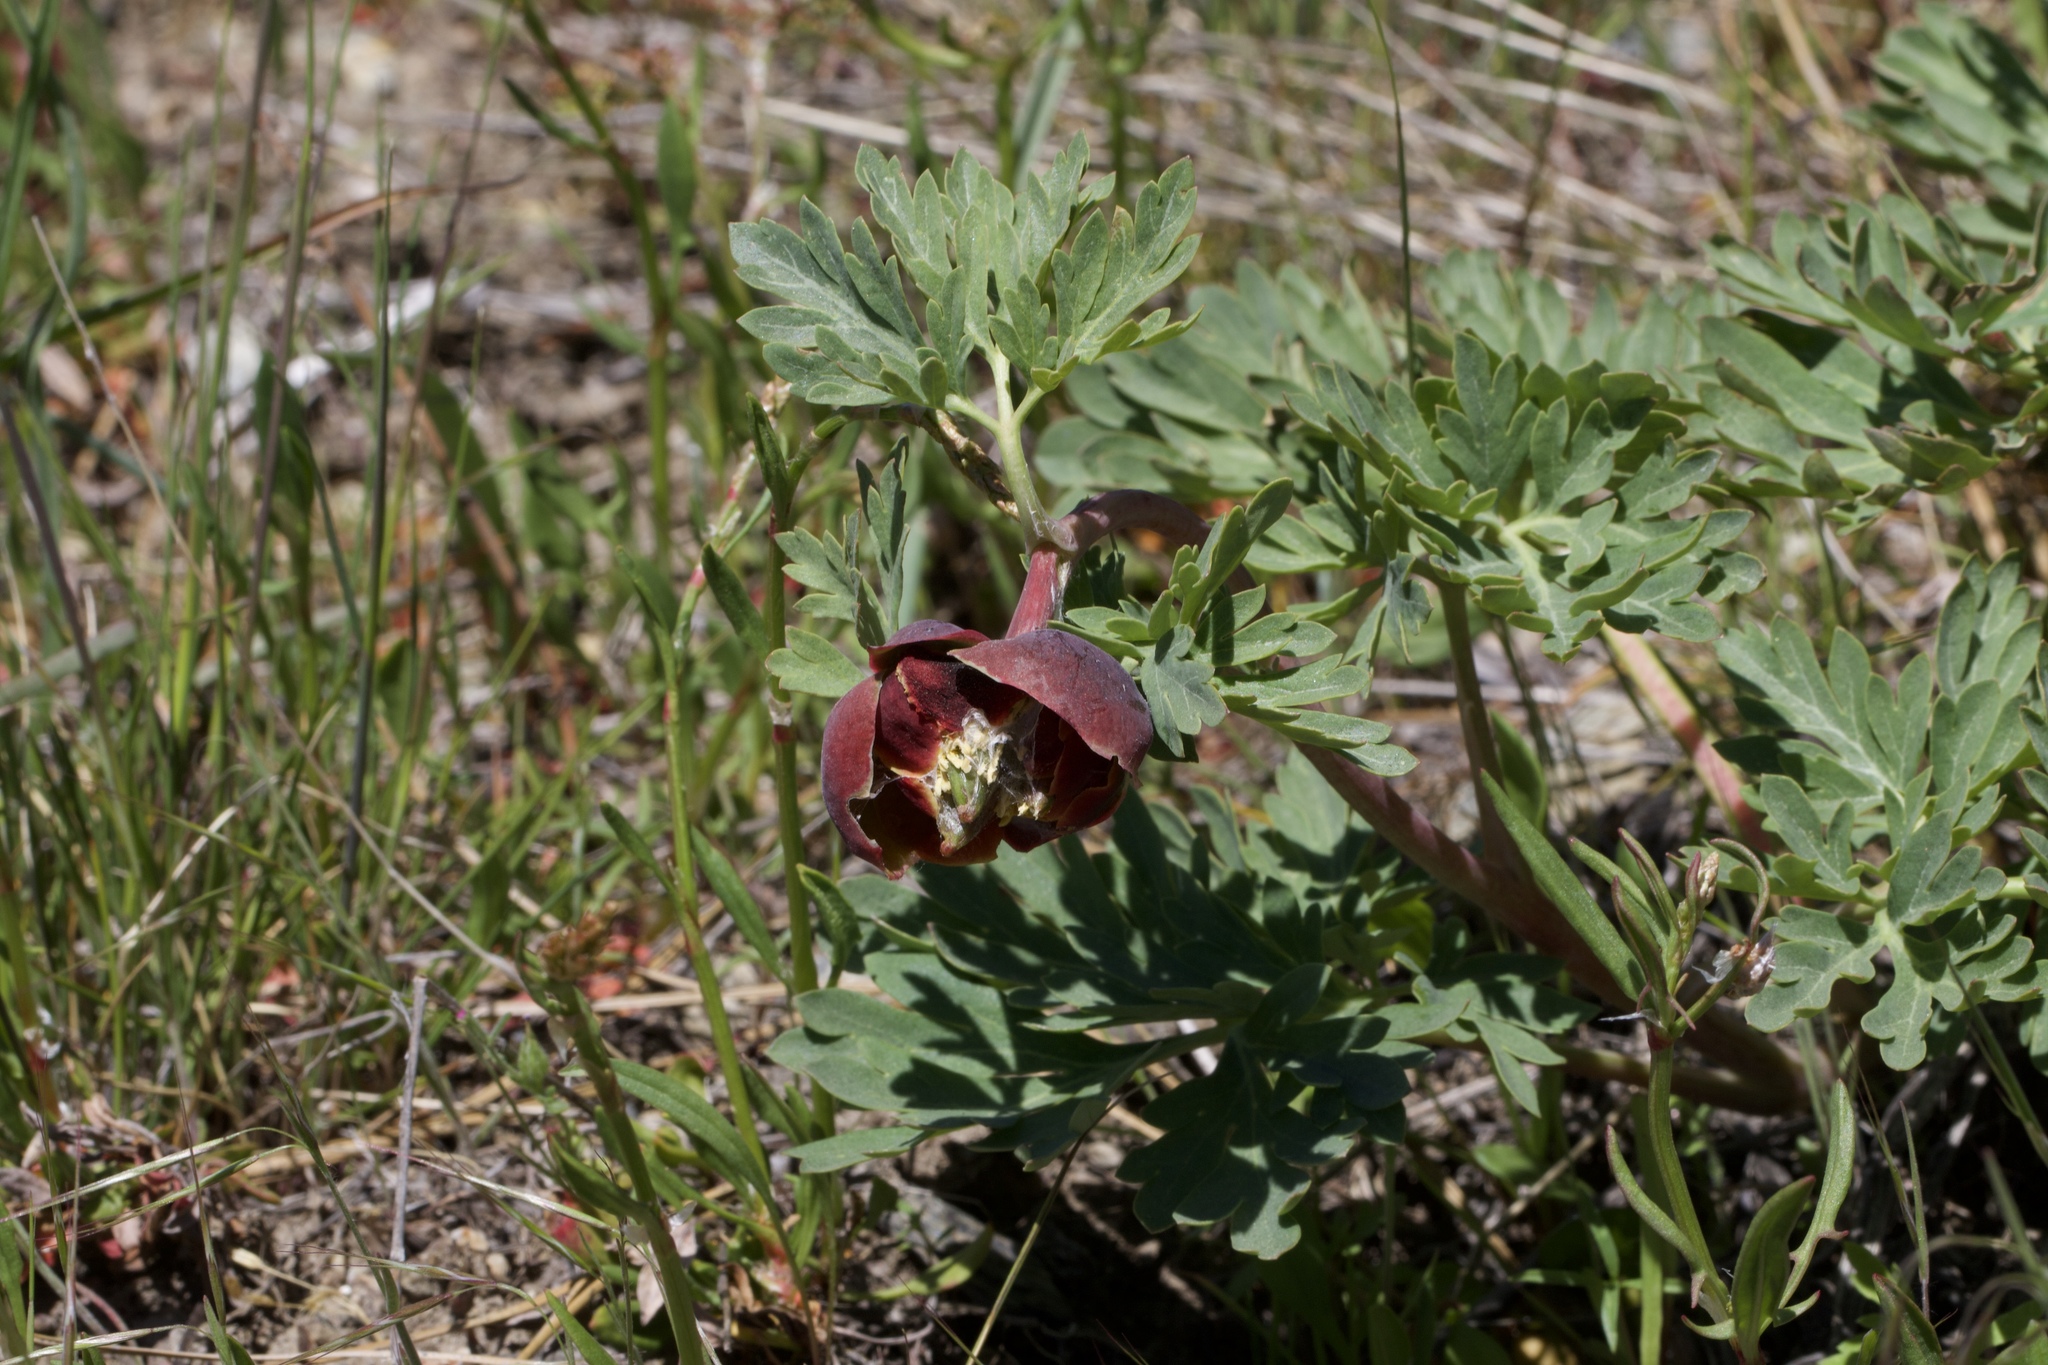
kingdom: Plantae
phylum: Tracheophyta
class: Magnoliopsida
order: Saxifragales
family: Paeoniaceae
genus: Paeonia
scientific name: Paeonia brownii
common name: Brown's peony
